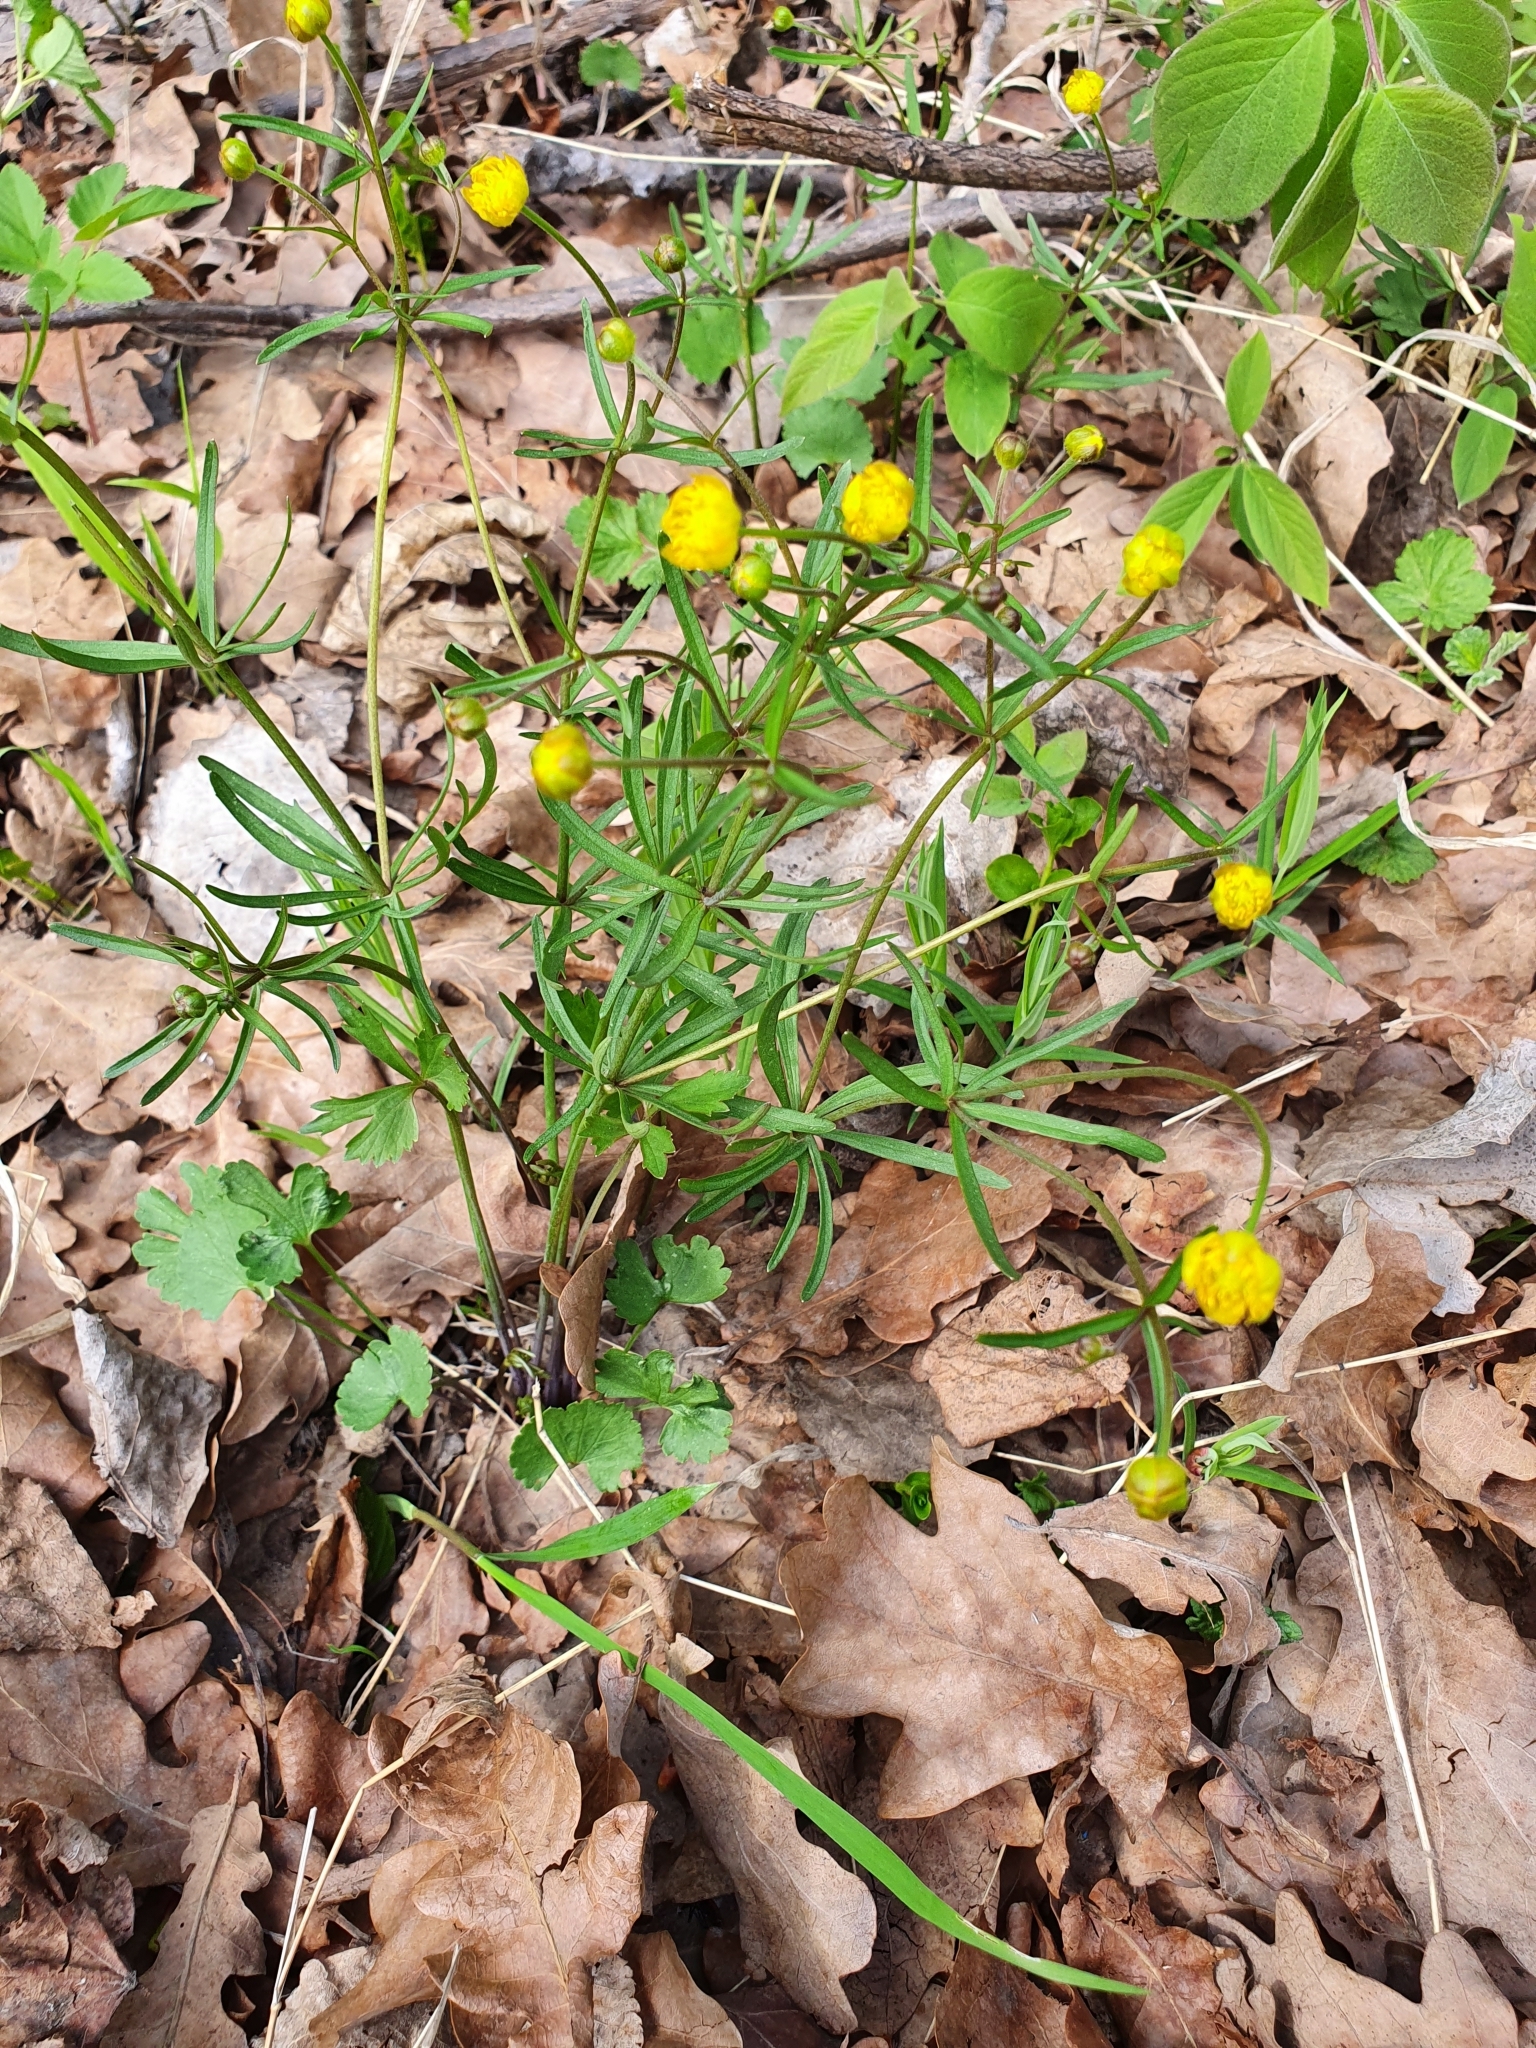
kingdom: Plantae
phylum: Tracheophyta
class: Magnoliopsida
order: Ranunculales
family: Ranunculaceae
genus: Ranunculus
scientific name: Ranunculus auricomus
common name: Goldilocks buttercup
